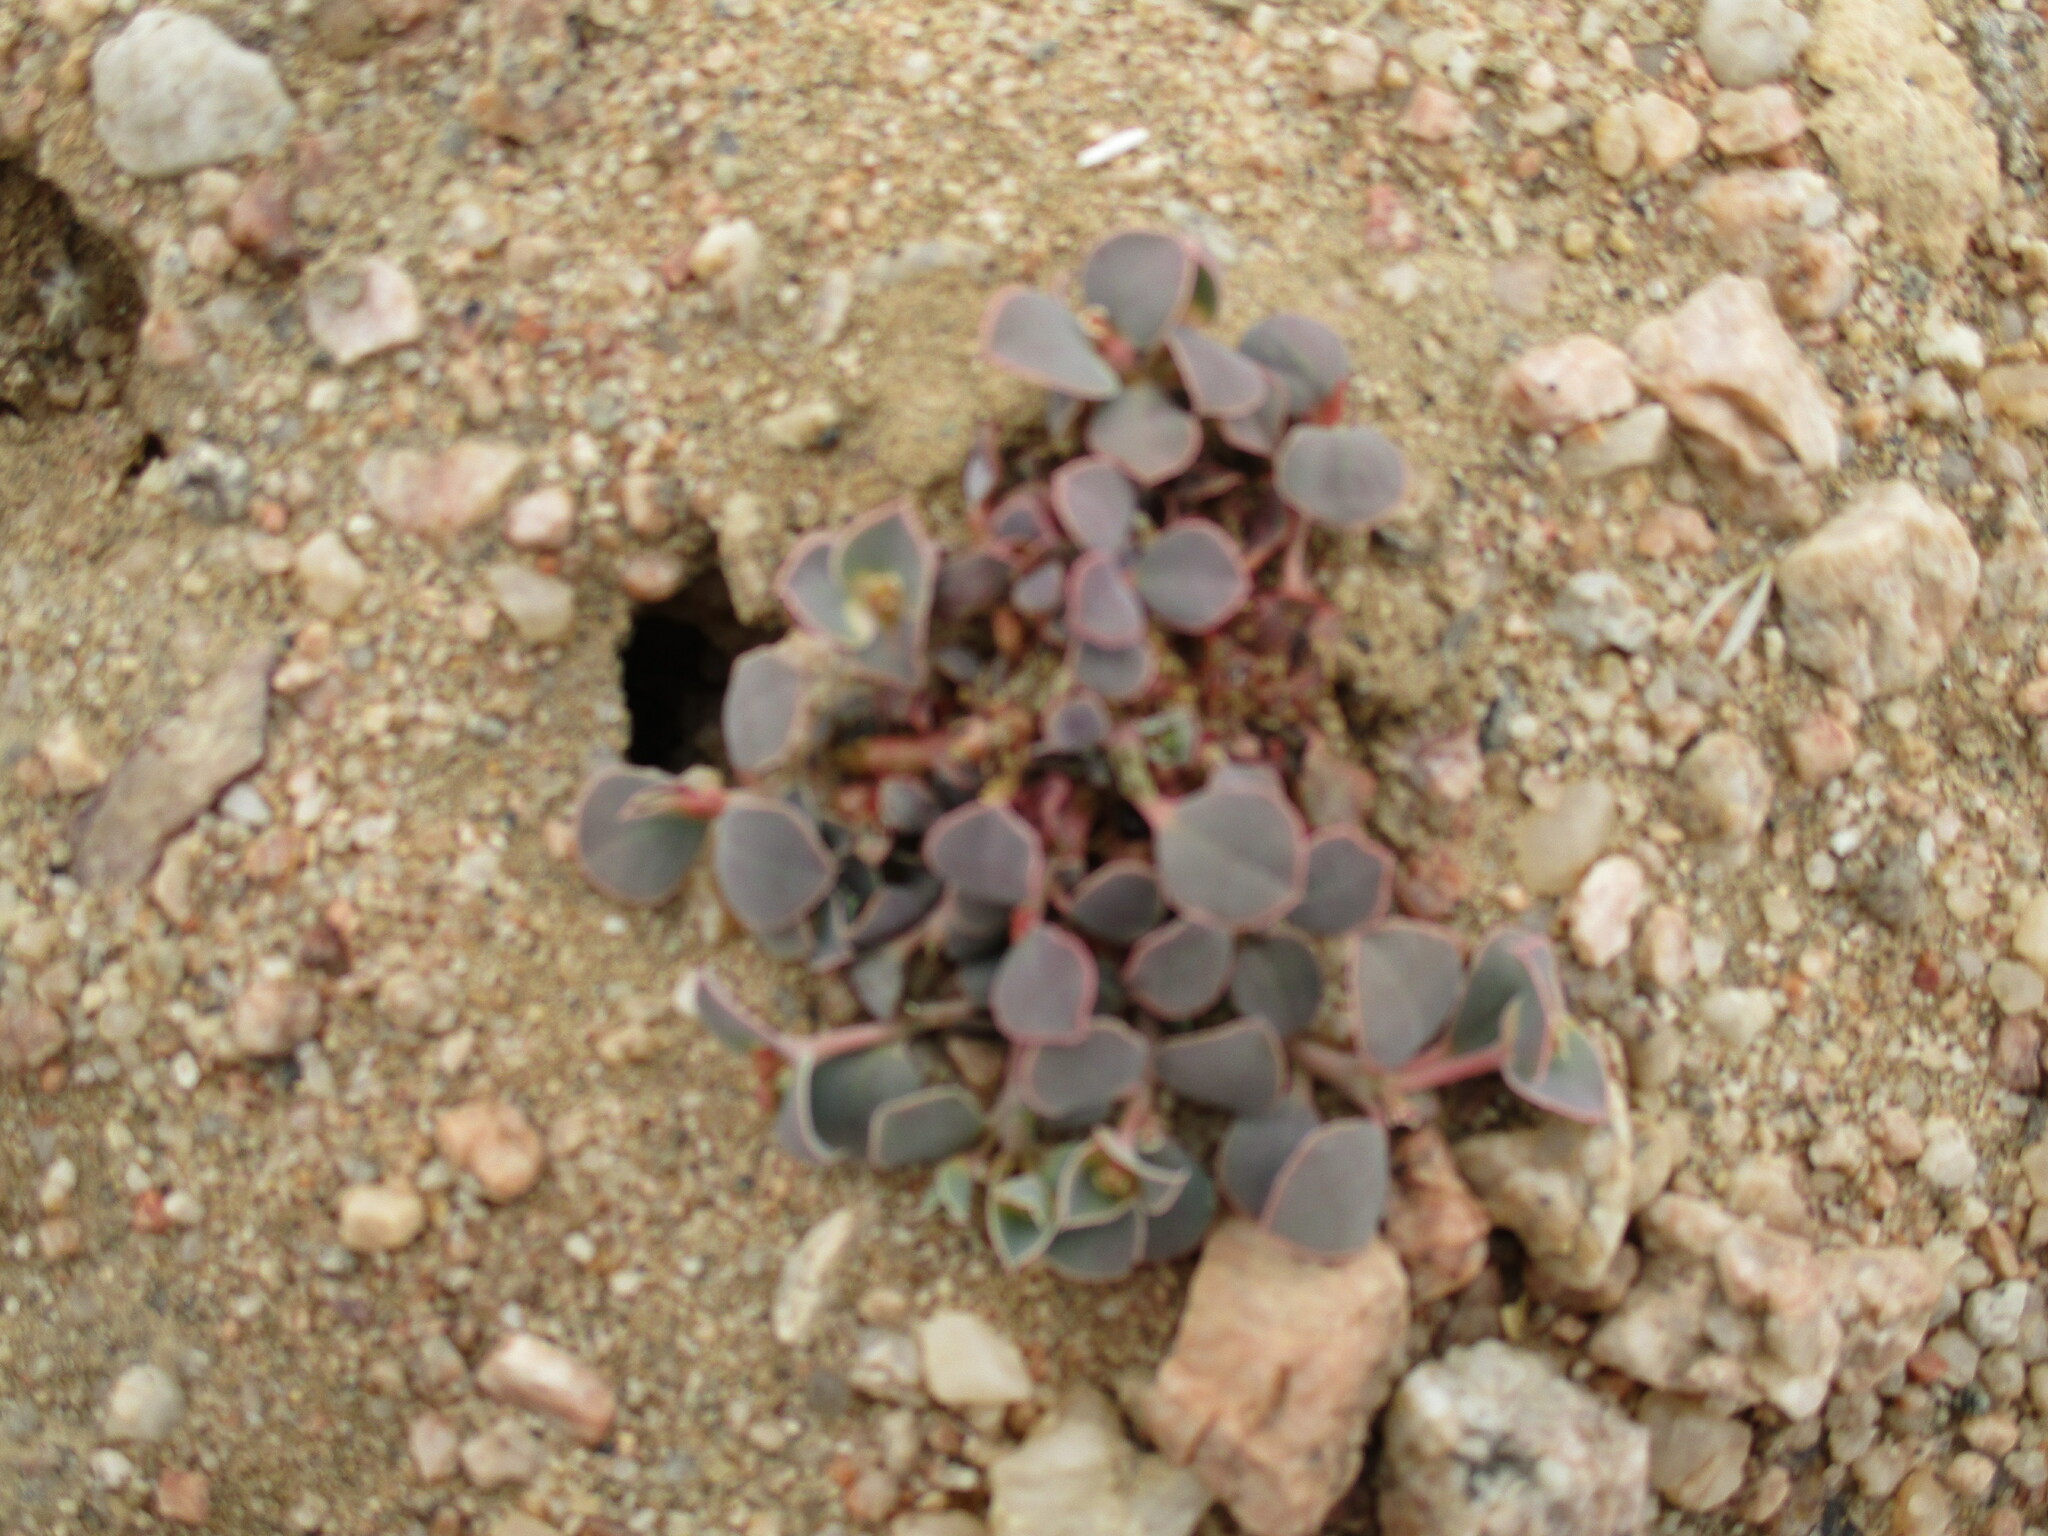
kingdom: Plantae
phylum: Tracheophyta
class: Magnoliopsida
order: Malpighiales
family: Euphorbiaceae
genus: Euphorbia
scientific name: Euphorbia phylloclada
